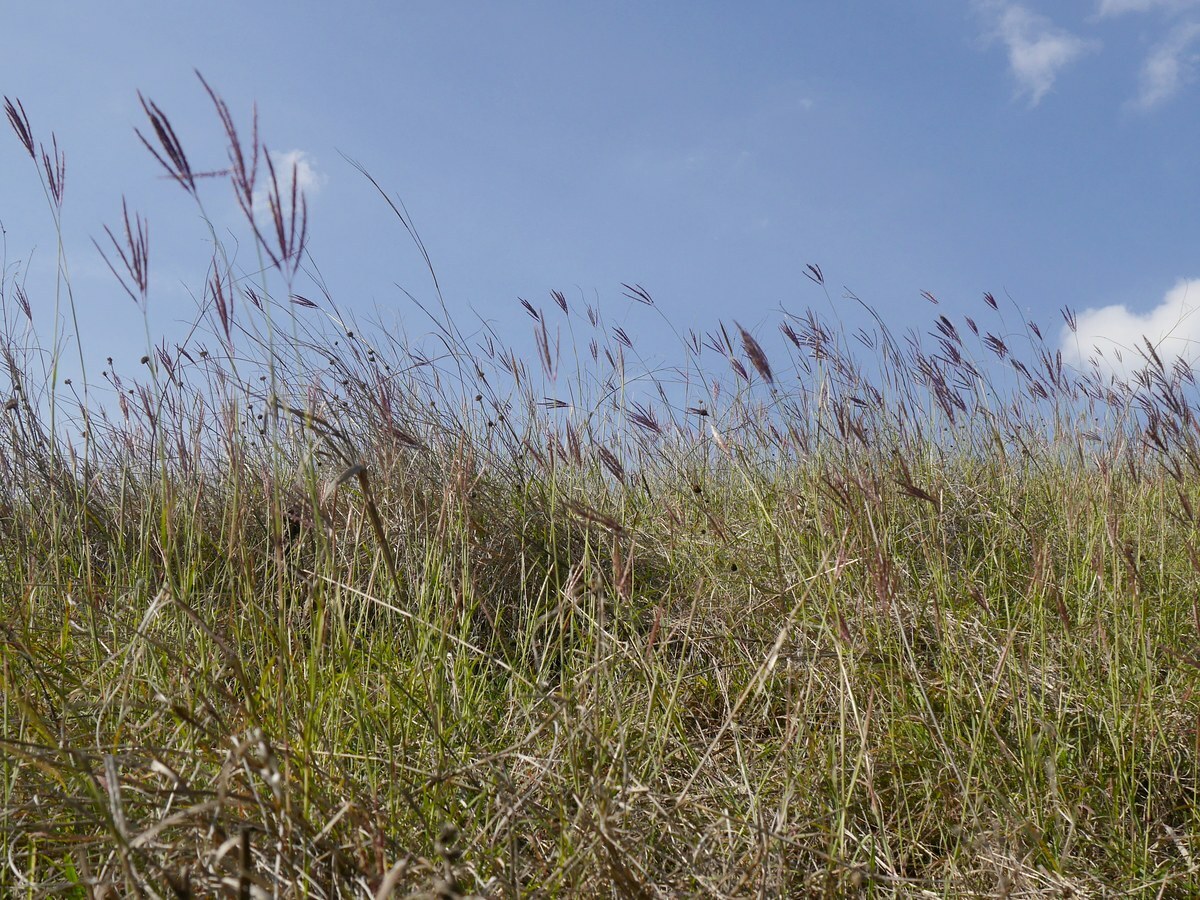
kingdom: Plantae
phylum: Tracheophyta
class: Liliopsida
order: Poales
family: Poaceae
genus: Bothriochloa
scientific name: Bothriochloa ischaemum
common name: Yellow bluestem
